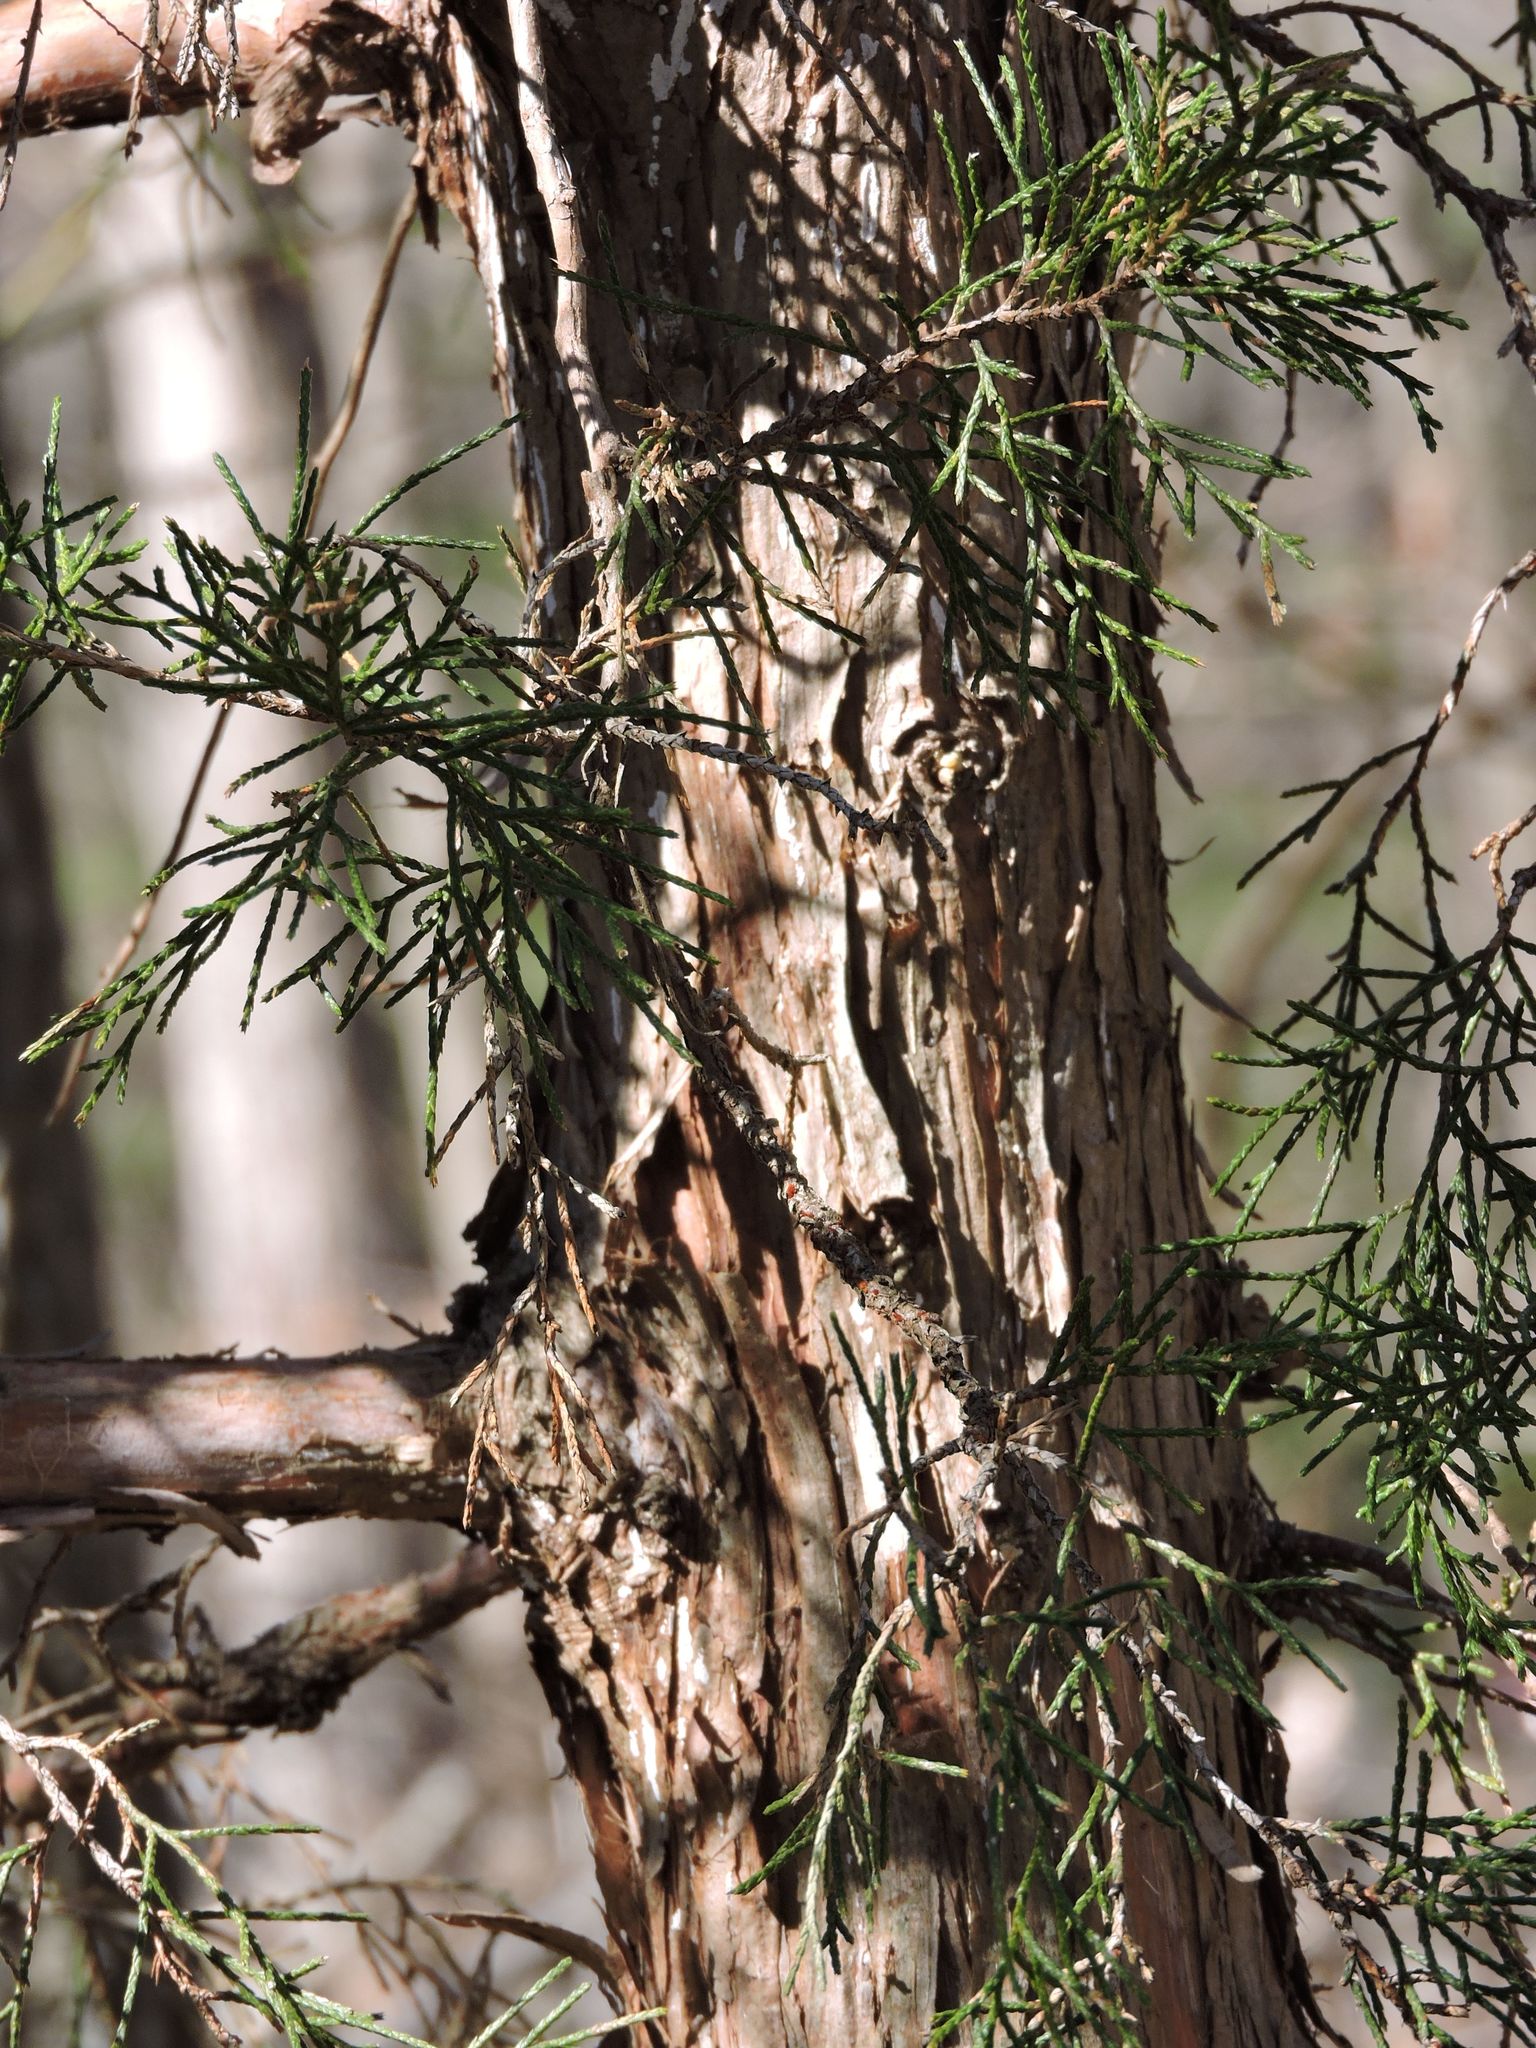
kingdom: Plantae
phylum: Tracheophyta
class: Pinopsida
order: Pinales
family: Cupressaceae
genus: Juniperus
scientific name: Juniperus virginiana
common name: Red juniper
